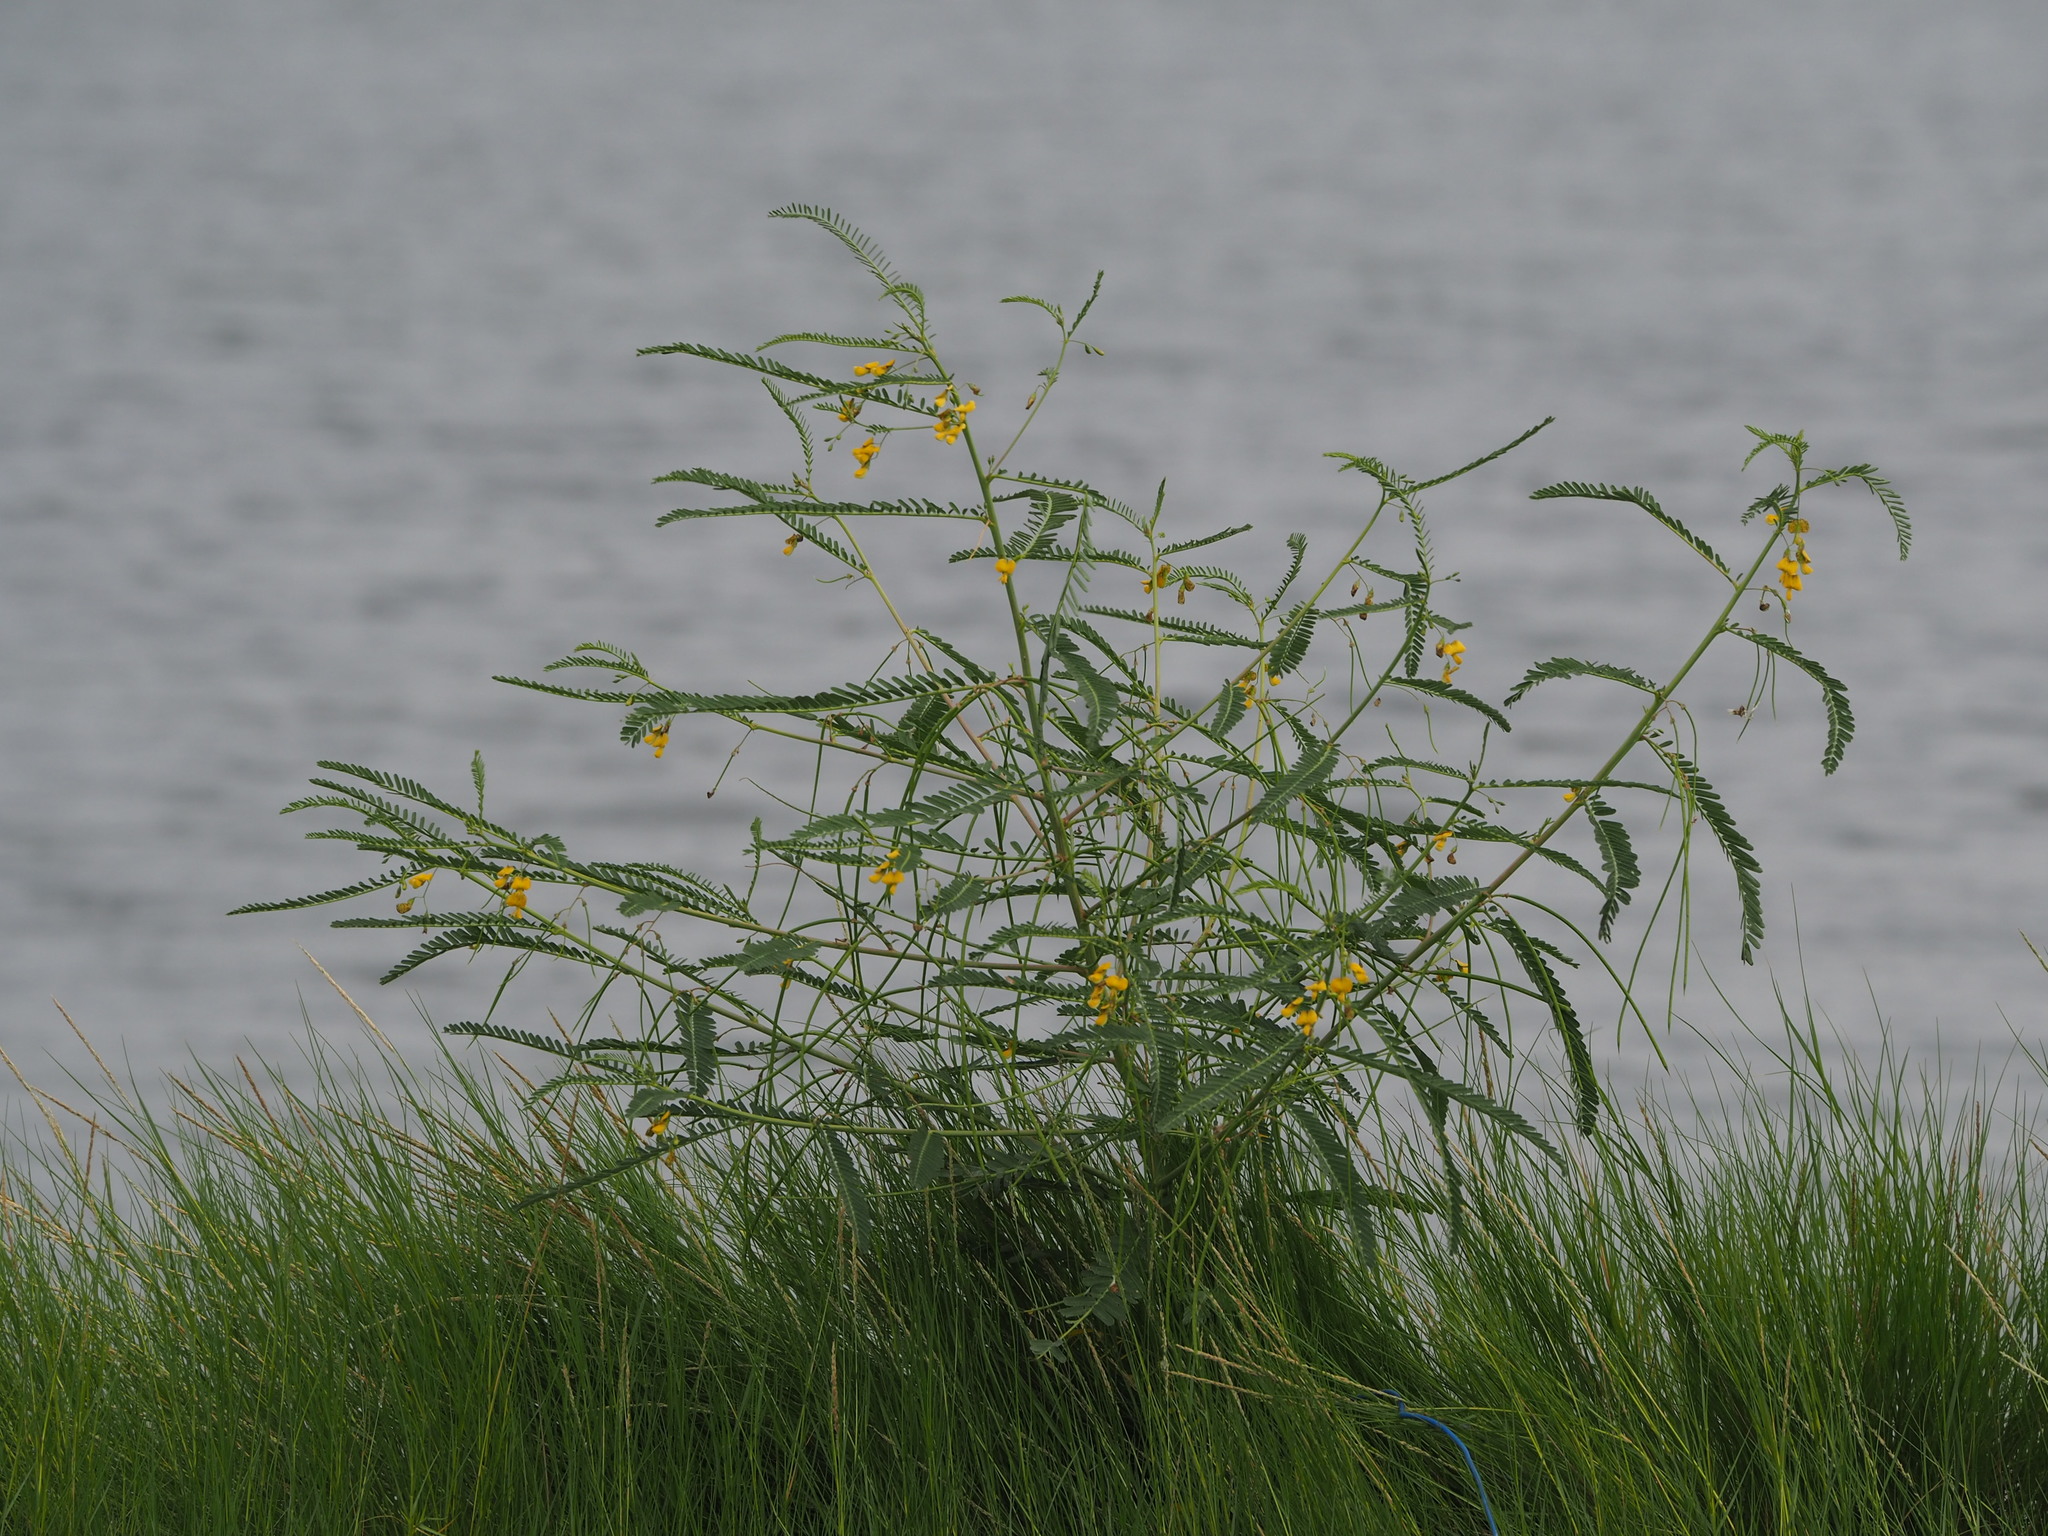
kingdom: Plantae
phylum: Tracheophyta
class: Magnoliopsida
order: Fabales
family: Fabaceae
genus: Sesbania
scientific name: Sesbania cannabina
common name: Canicha
